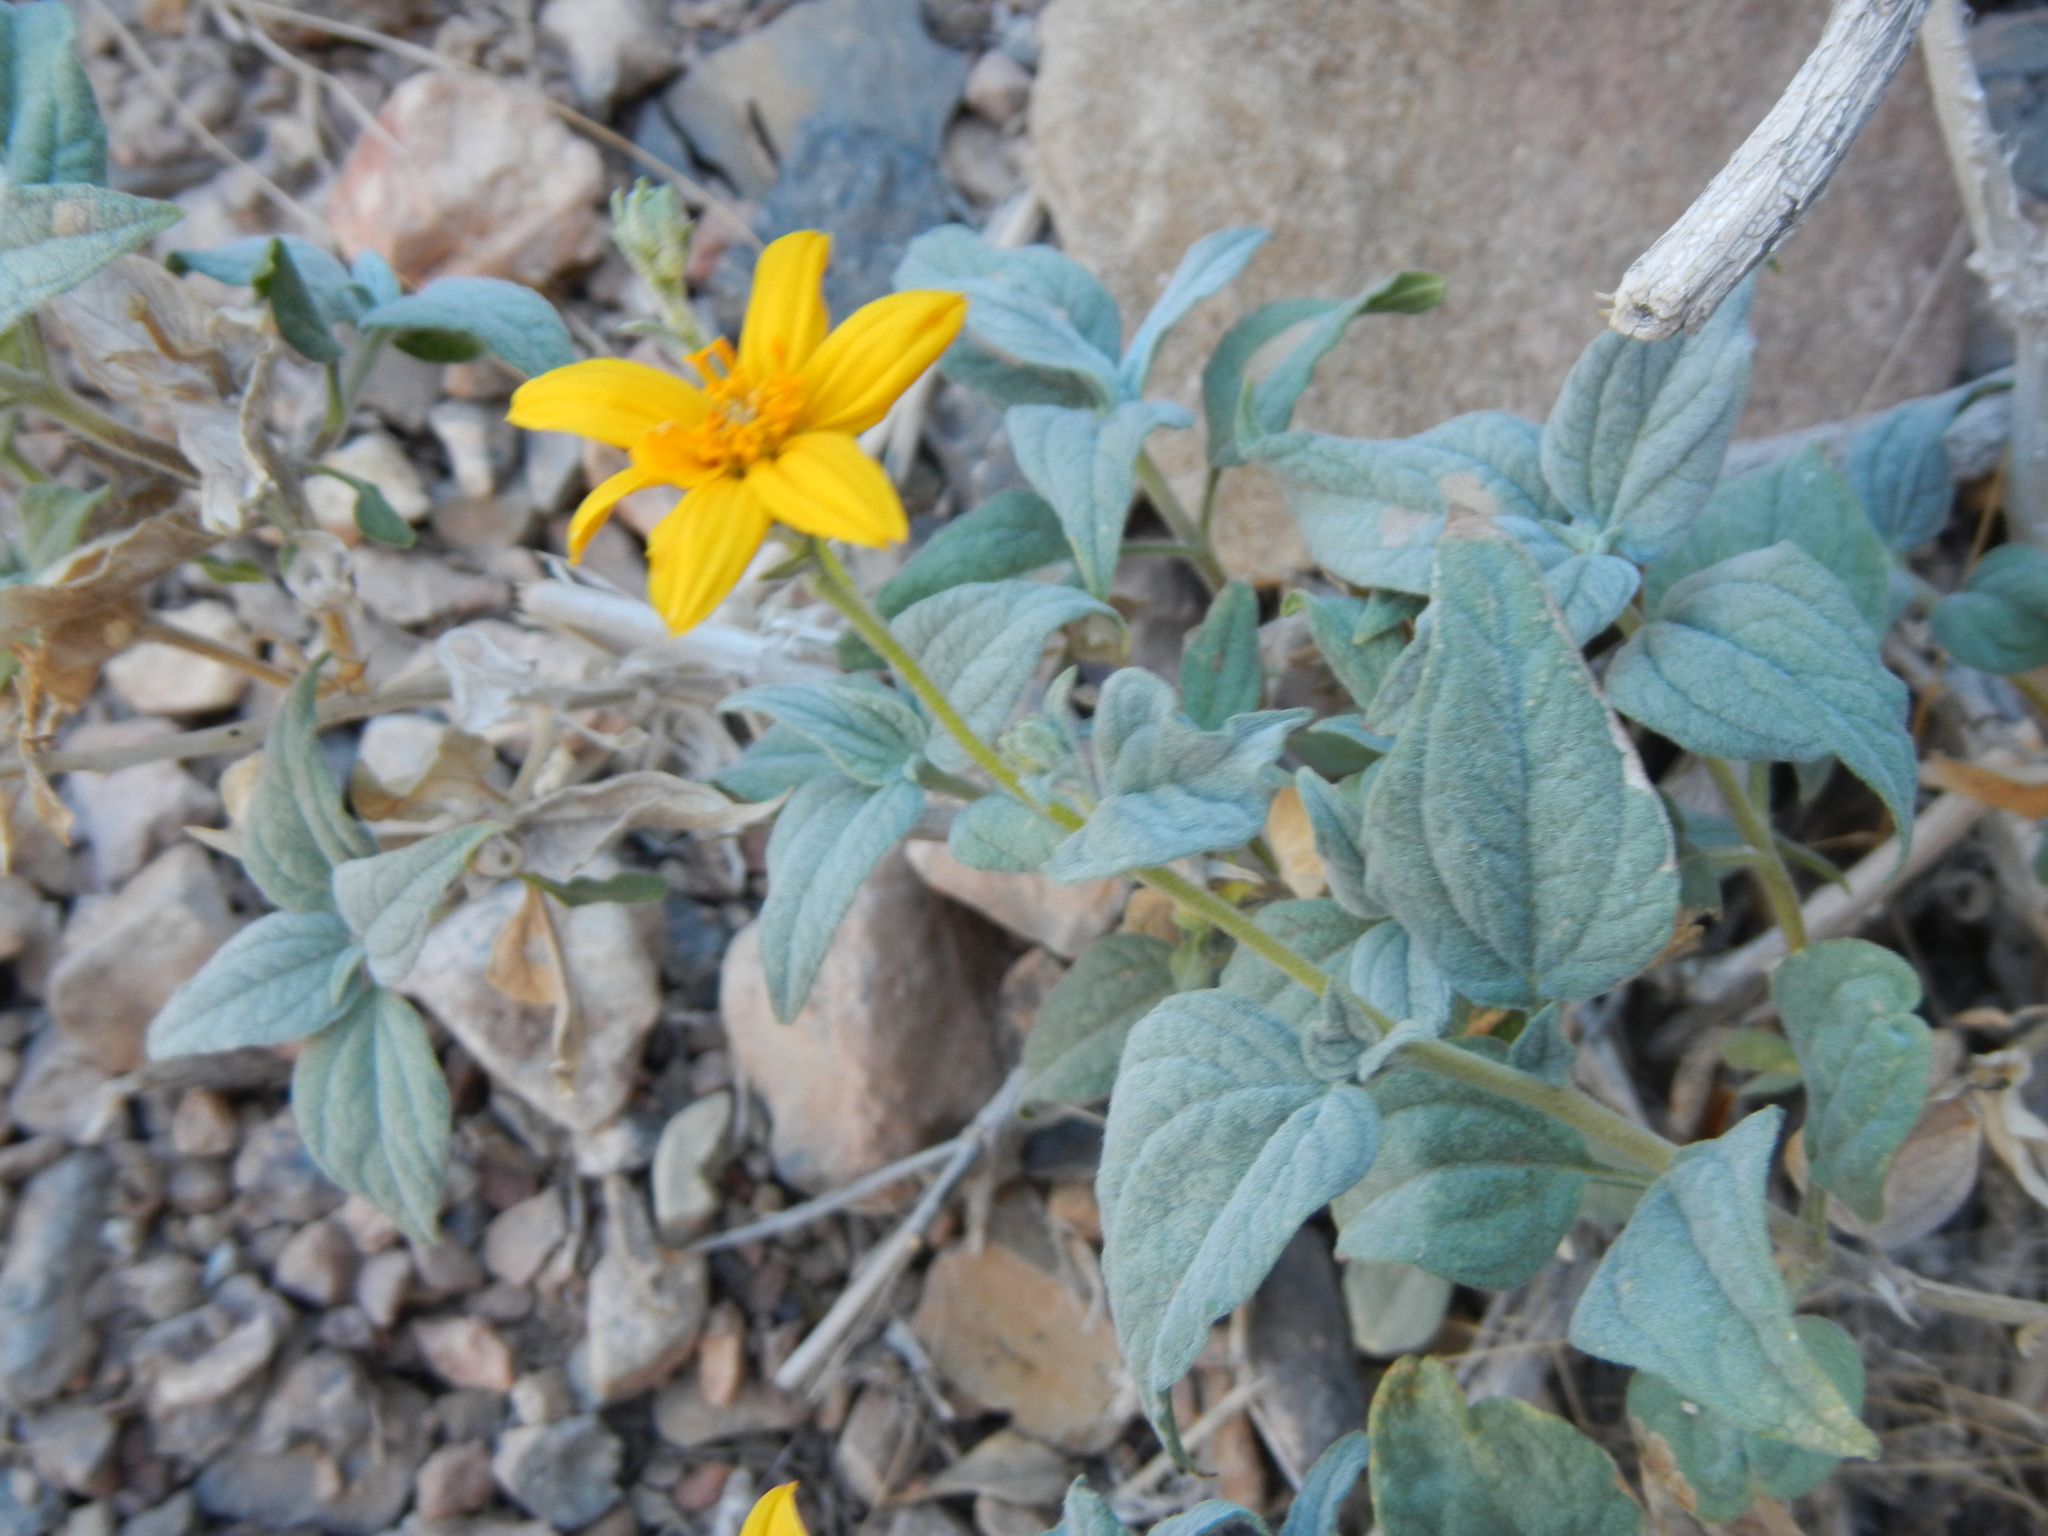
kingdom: Plantae
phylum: Tracheophyta
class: Magnoliopsida
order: Asterales
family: Asteraceae
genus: Bahiopsis
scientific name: Bahiopsis reticulata
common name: Death valley goldeneye
